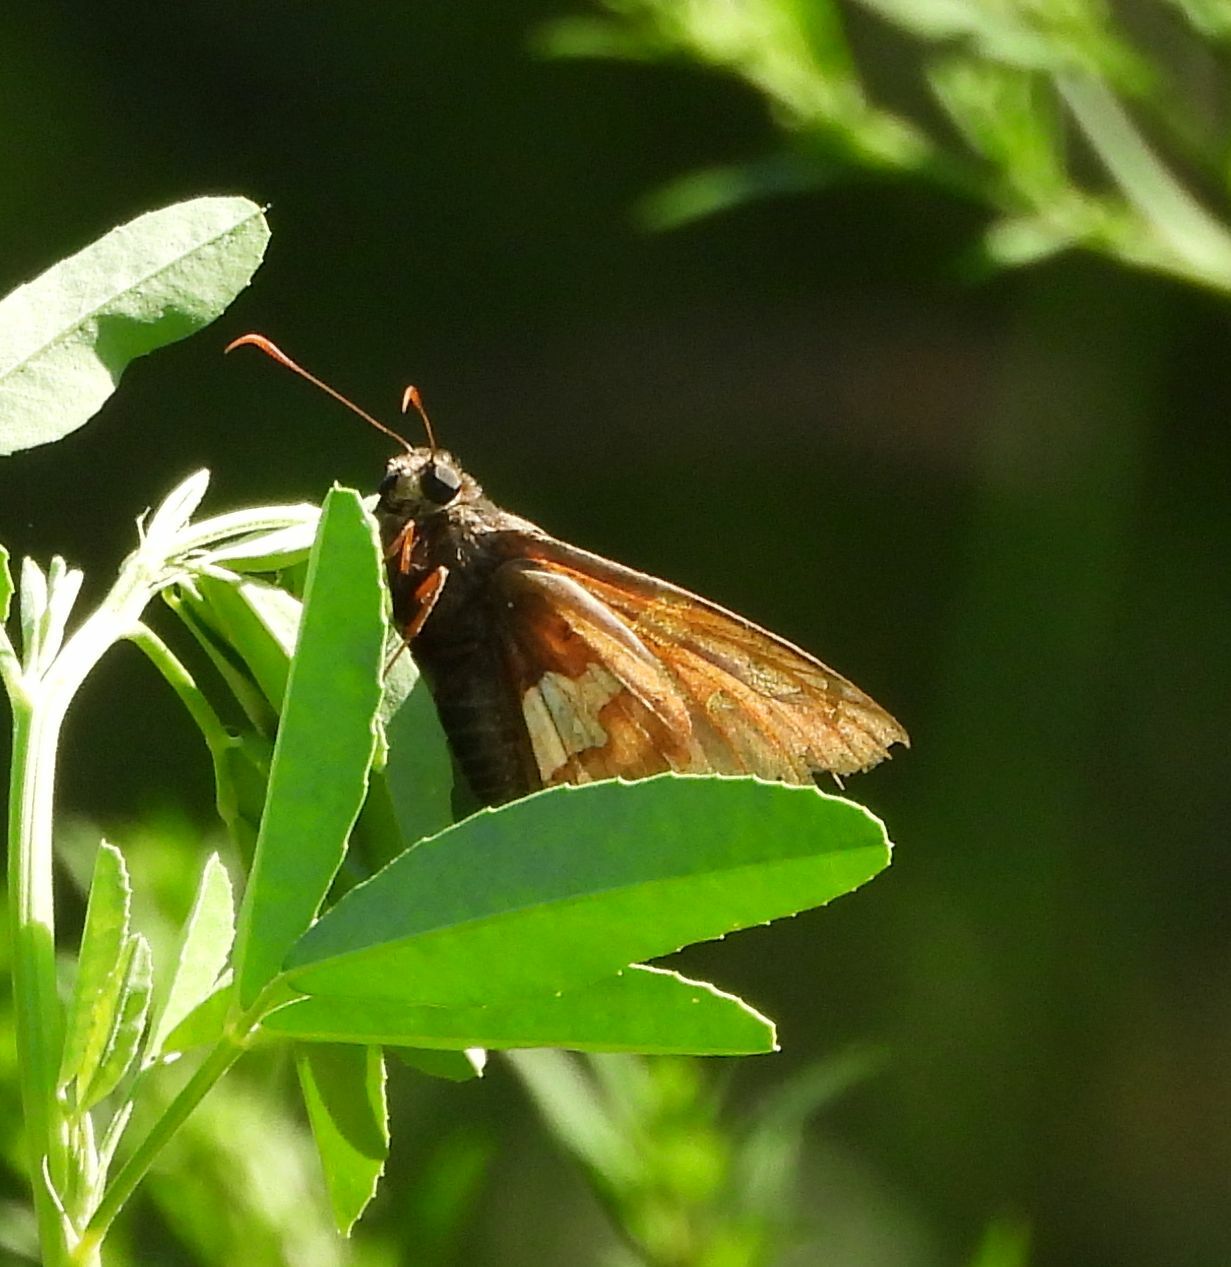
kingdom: Animalia
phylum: Arthropoda
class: Insecta
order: Lepidoptera
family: Hesperiidae
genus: Epargyreus
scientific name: Epargyreus clarus
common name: Silver-spotted skipper
